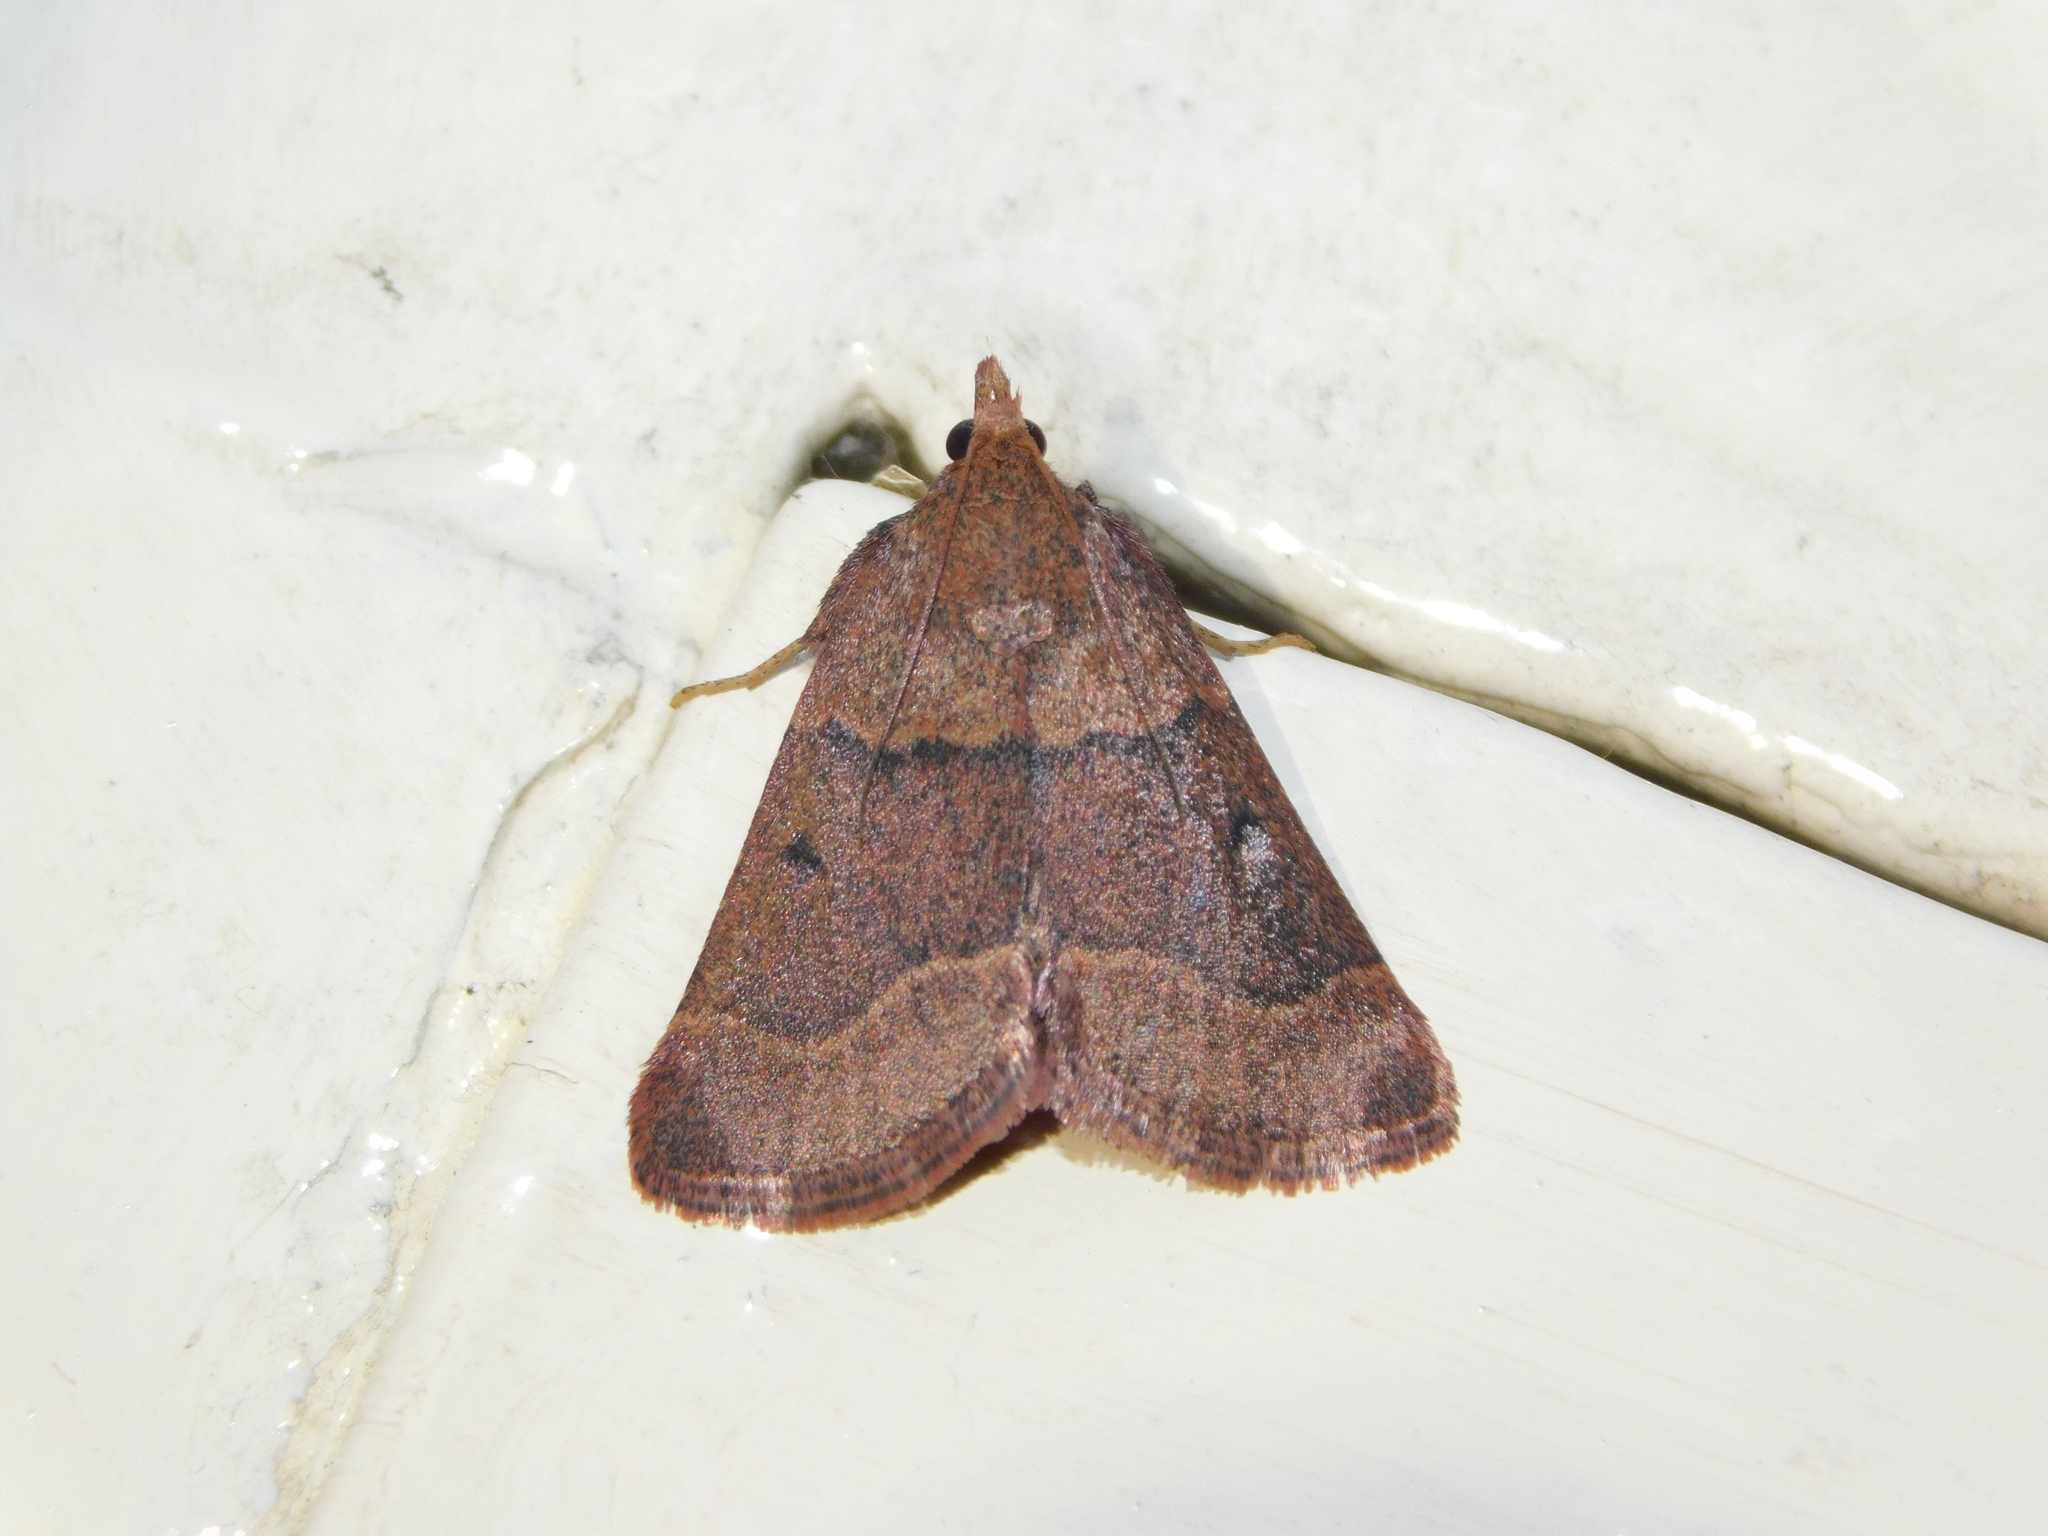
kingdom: Animalia
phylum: Arthropoda
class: Insecta
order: Lepidoptera
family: Pyralidae
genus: Arippara
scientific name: Arippara indicator
